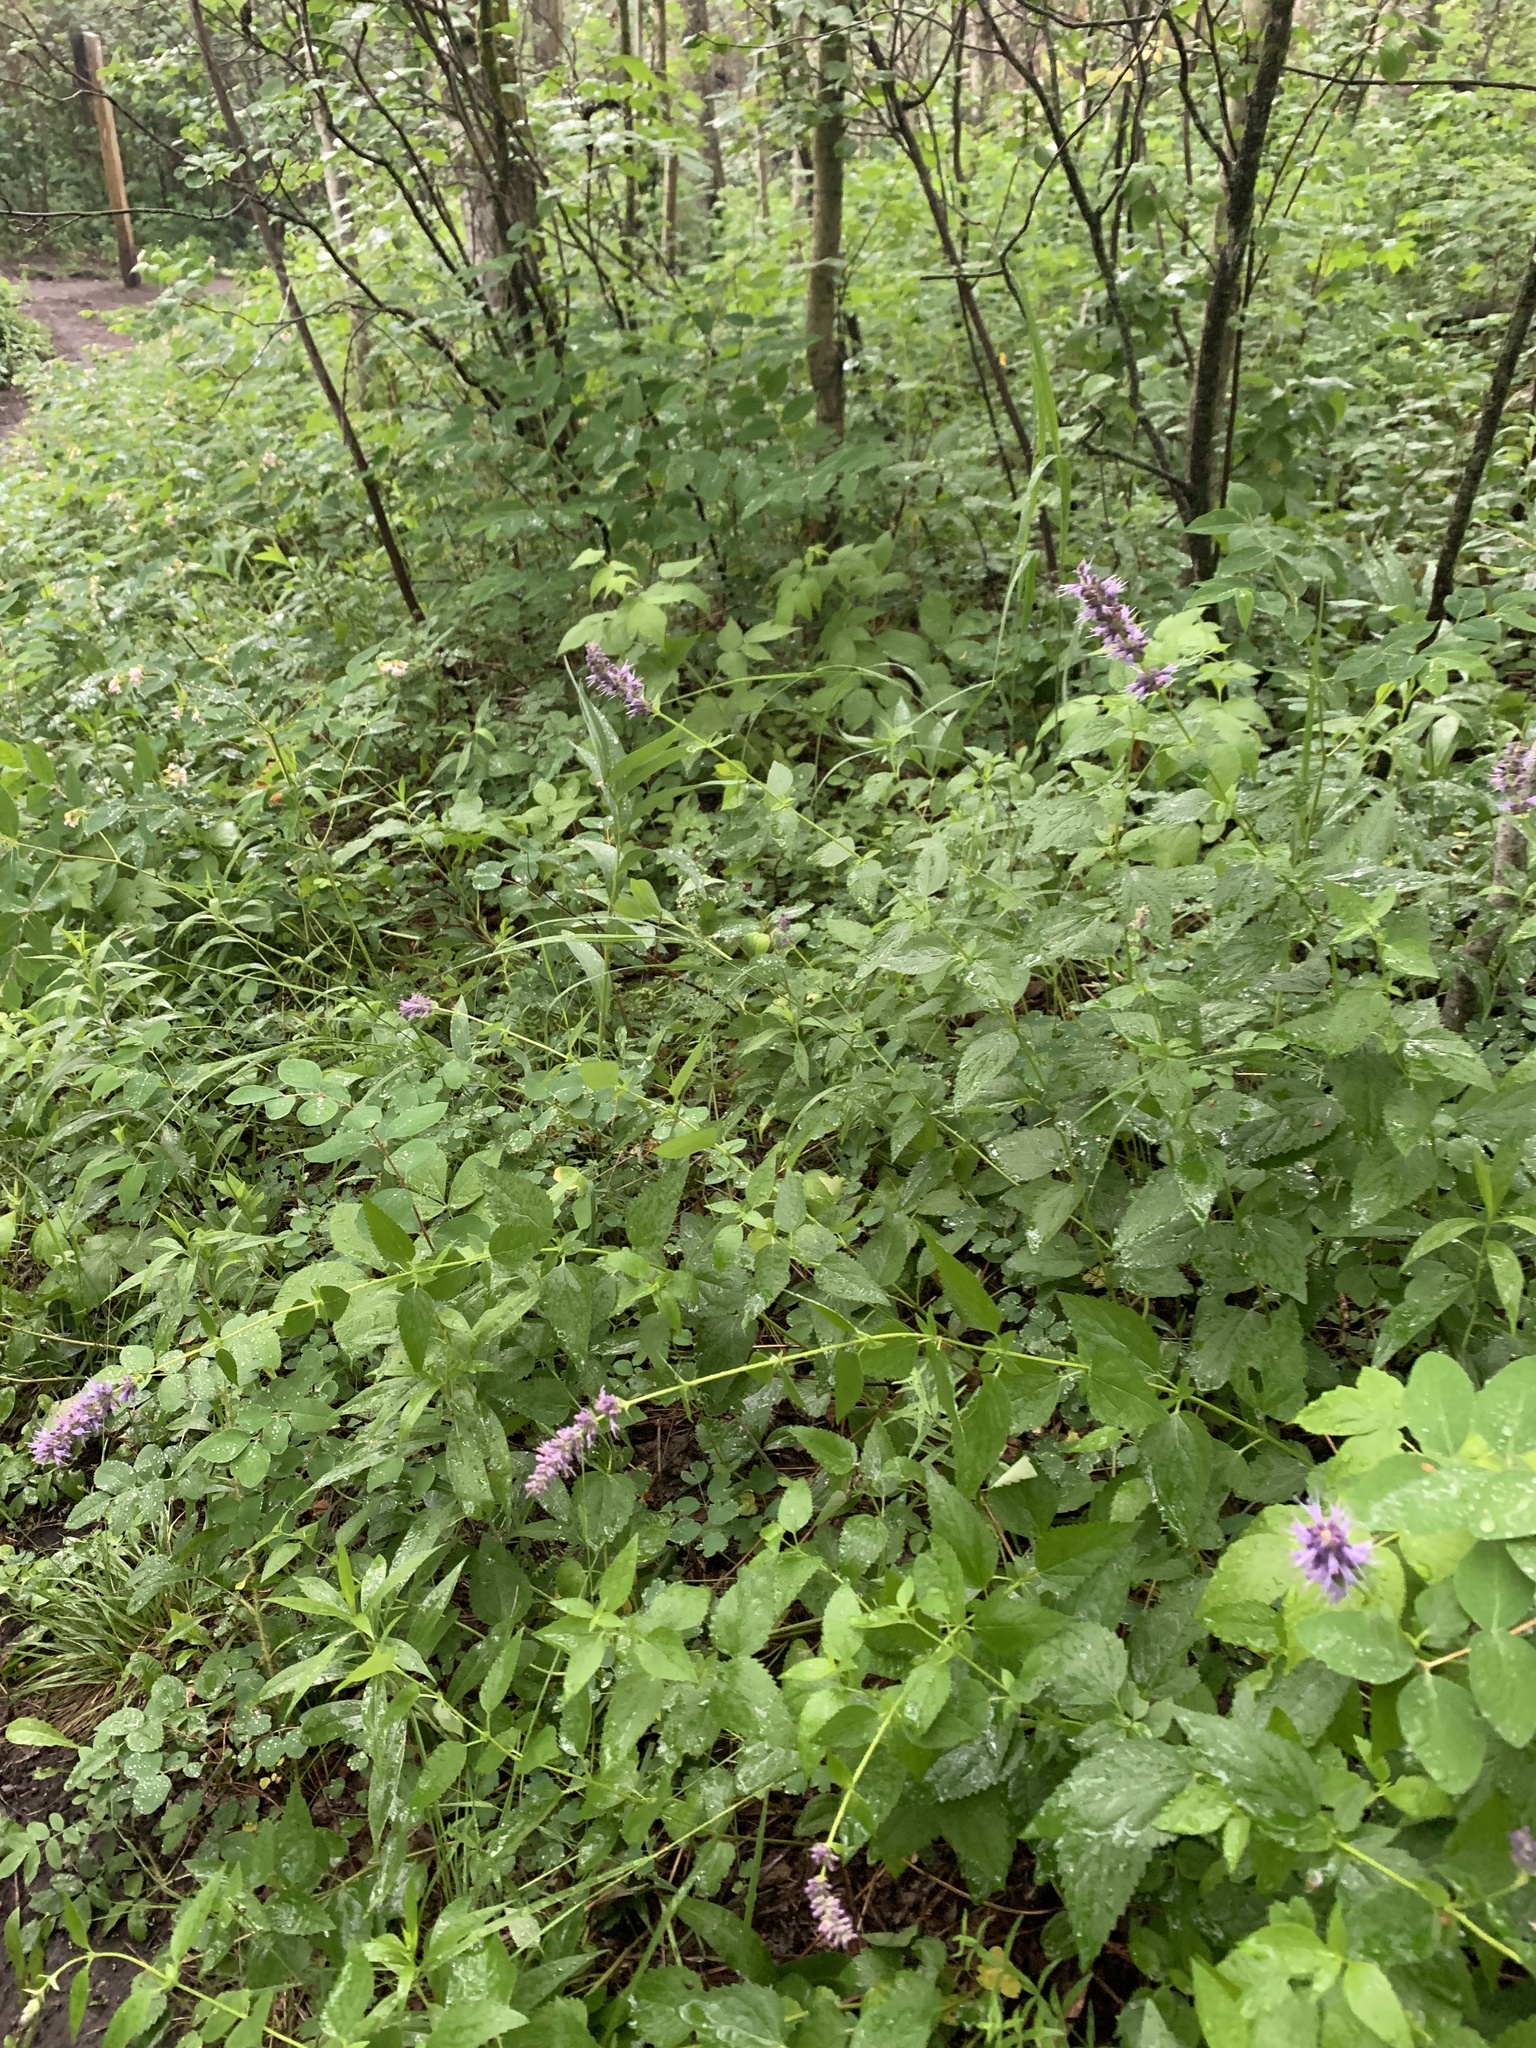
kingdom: Plantae
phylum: Tracheophyta
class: Magnoliopsida
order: Lamiales
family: Lamiaceae
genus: Agastache
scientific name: Agastache foeniculum
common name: Anise hyssop
